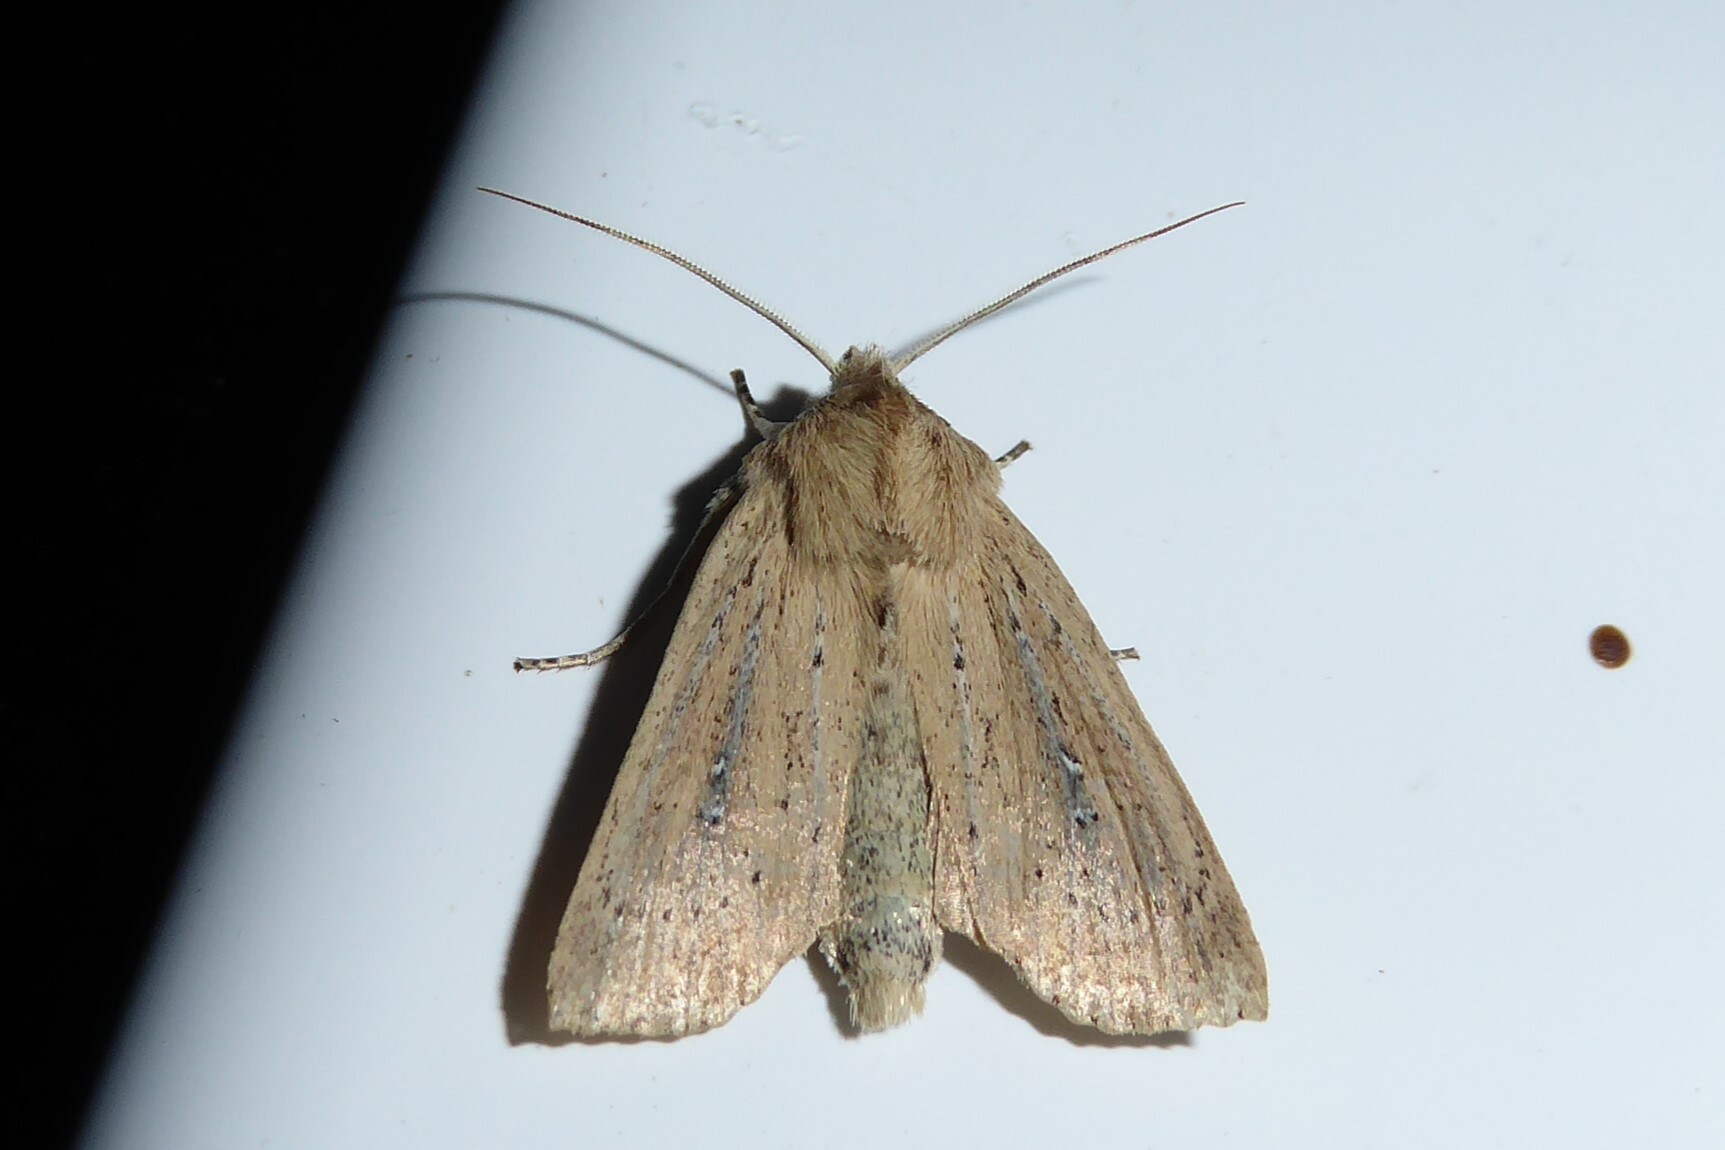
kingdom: Animalia
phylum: Arthropoda
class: Insecta
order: Lepidoptera
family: Noctuidae
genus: Ichneutica
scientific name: Ichneutica
